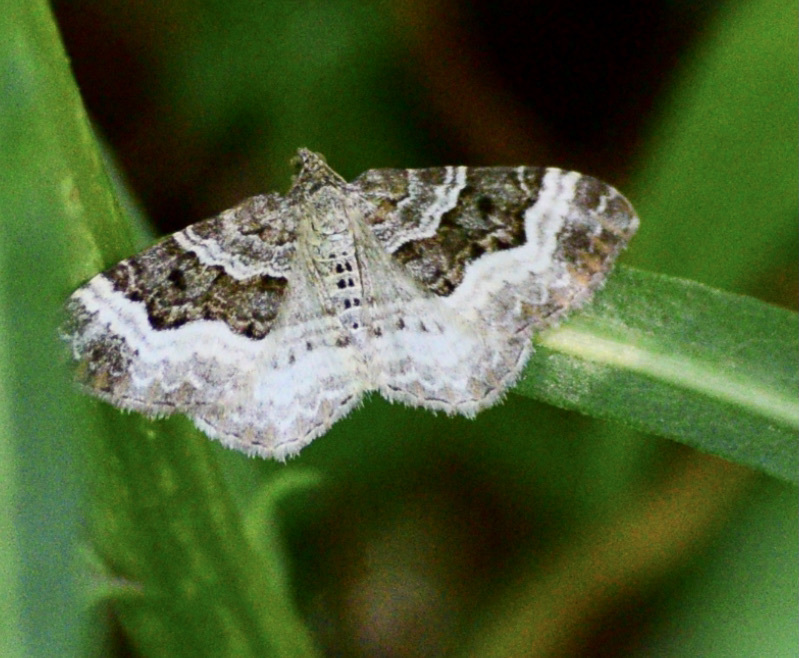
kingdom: Animalia
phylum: Arthropoda
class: Insecta
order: Lepidoptera
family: Geometridae
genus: Epirrhoe
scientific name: Epirrhoe alternata
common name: Common carpet
